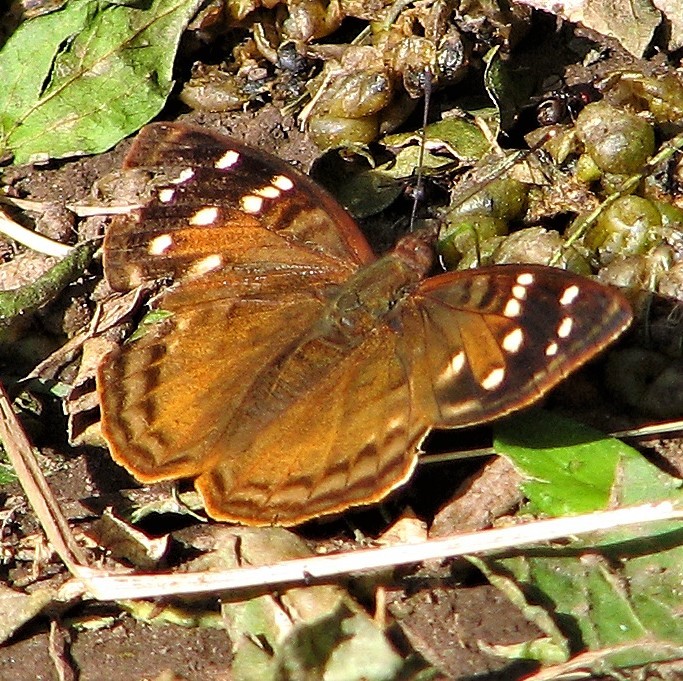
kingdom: Animalia
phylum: Arthropoda
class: Insecta
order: Lepidoptera
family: Nymphalidae
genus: Doxocopa
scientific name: Doxocopa kallina
